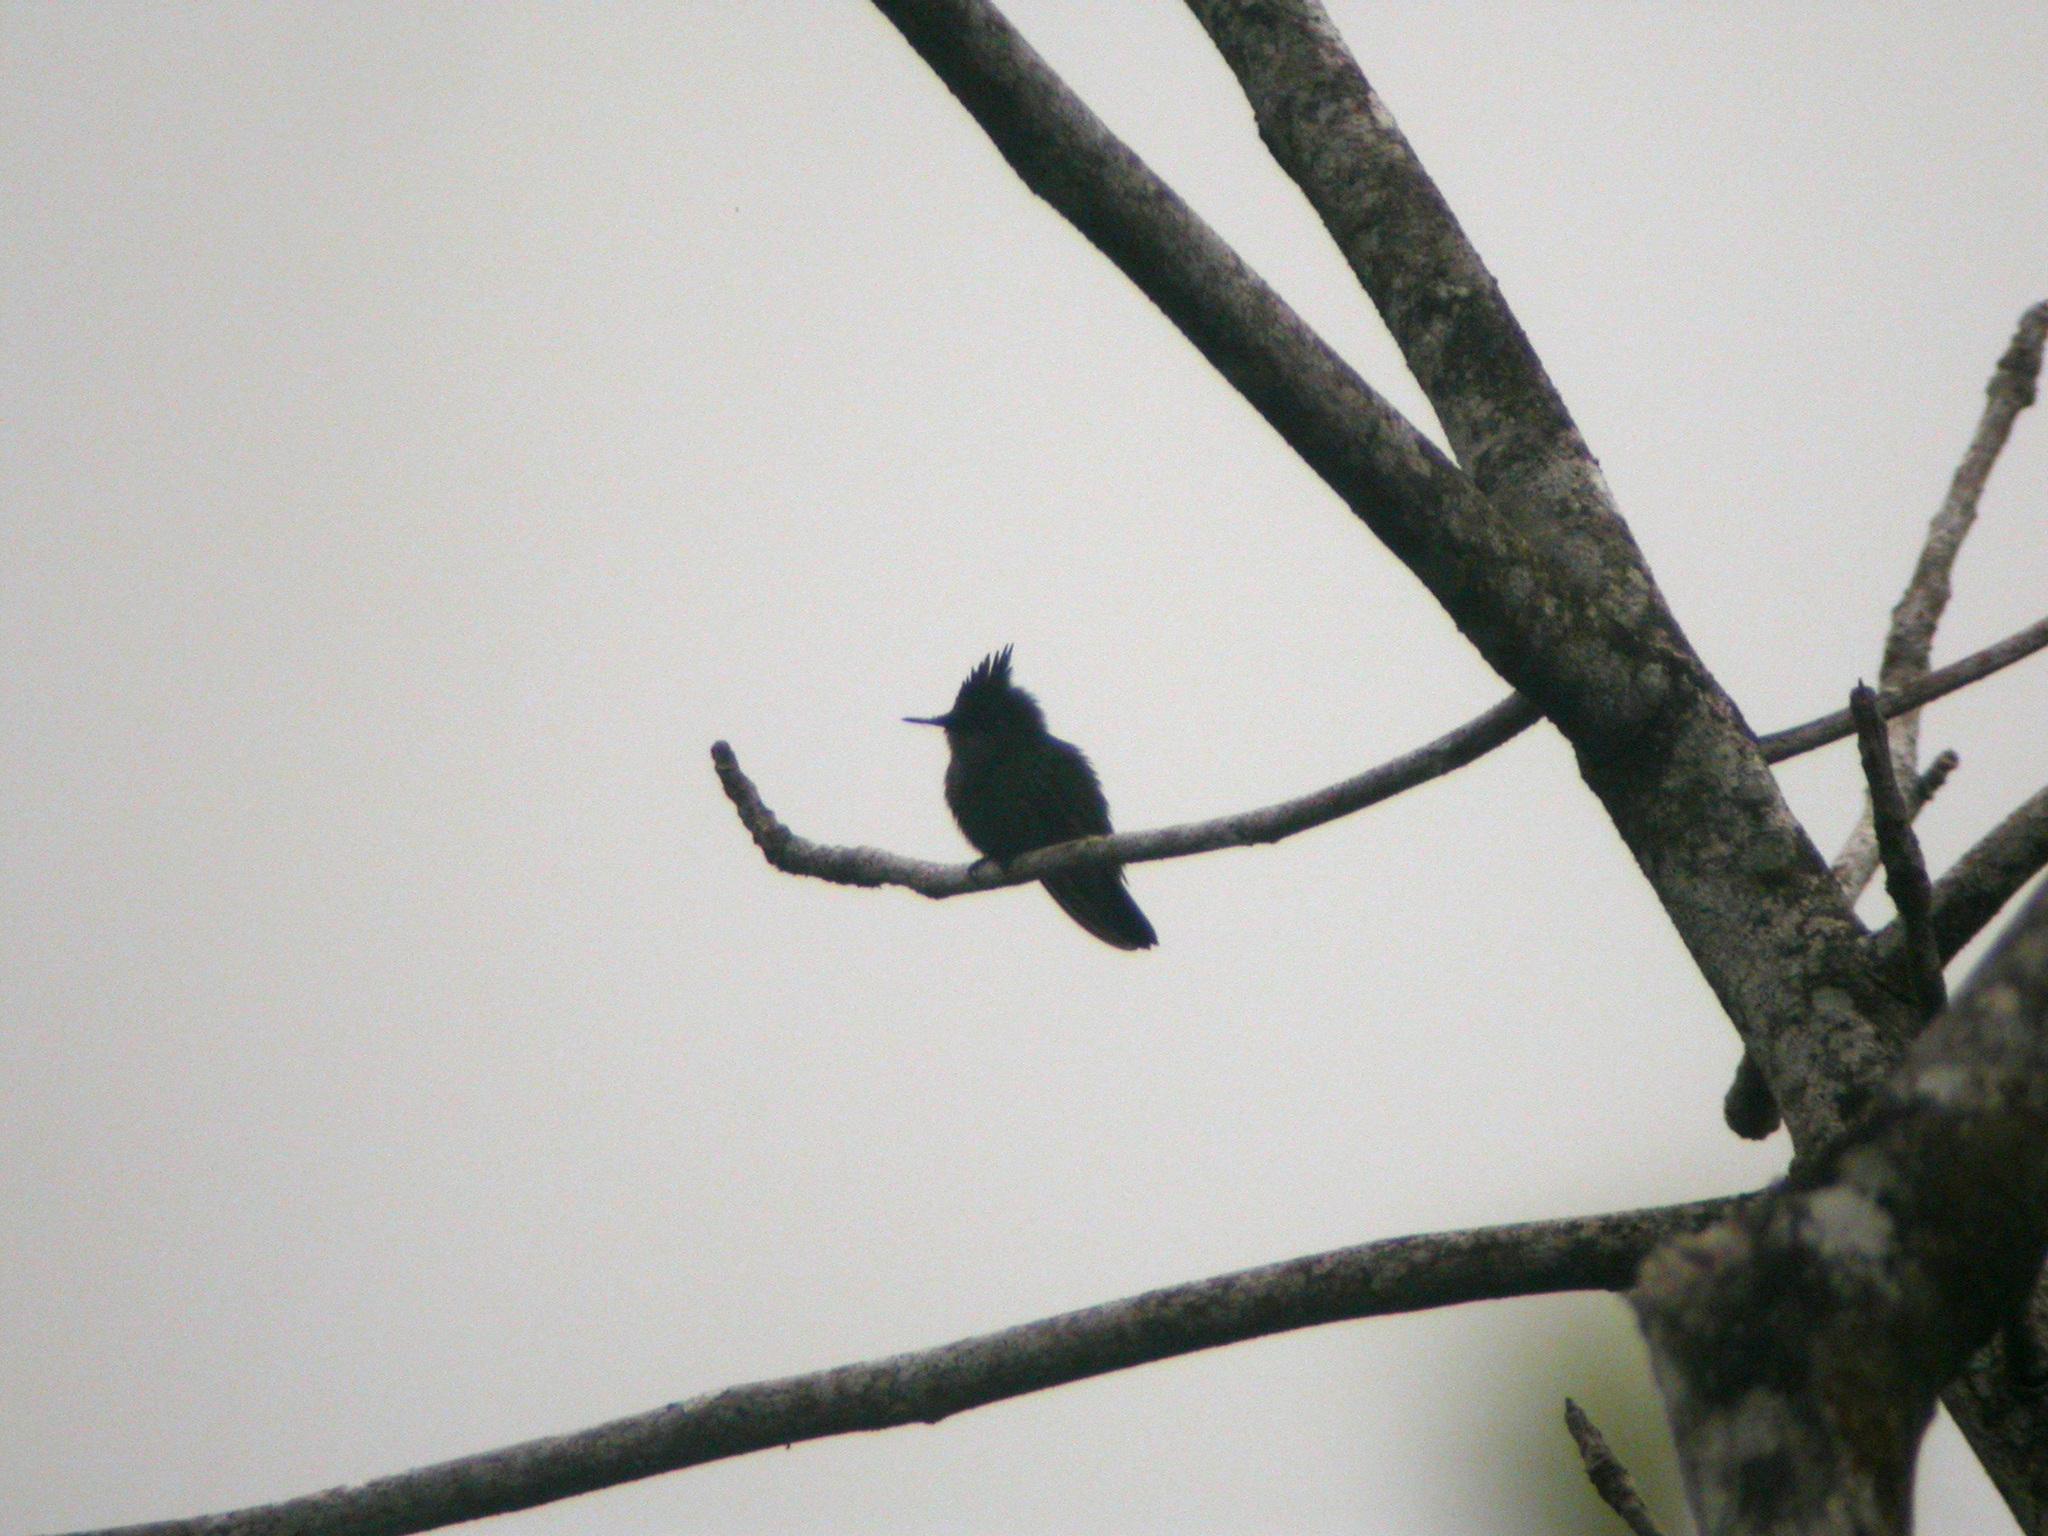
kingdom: Animalia
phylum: Chordata
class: Aves
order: Apodiformes
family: Trochilidae
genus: Orthorhyncus
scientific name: Orthorhyncus cristatus
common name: Antillean crested hummingbird
